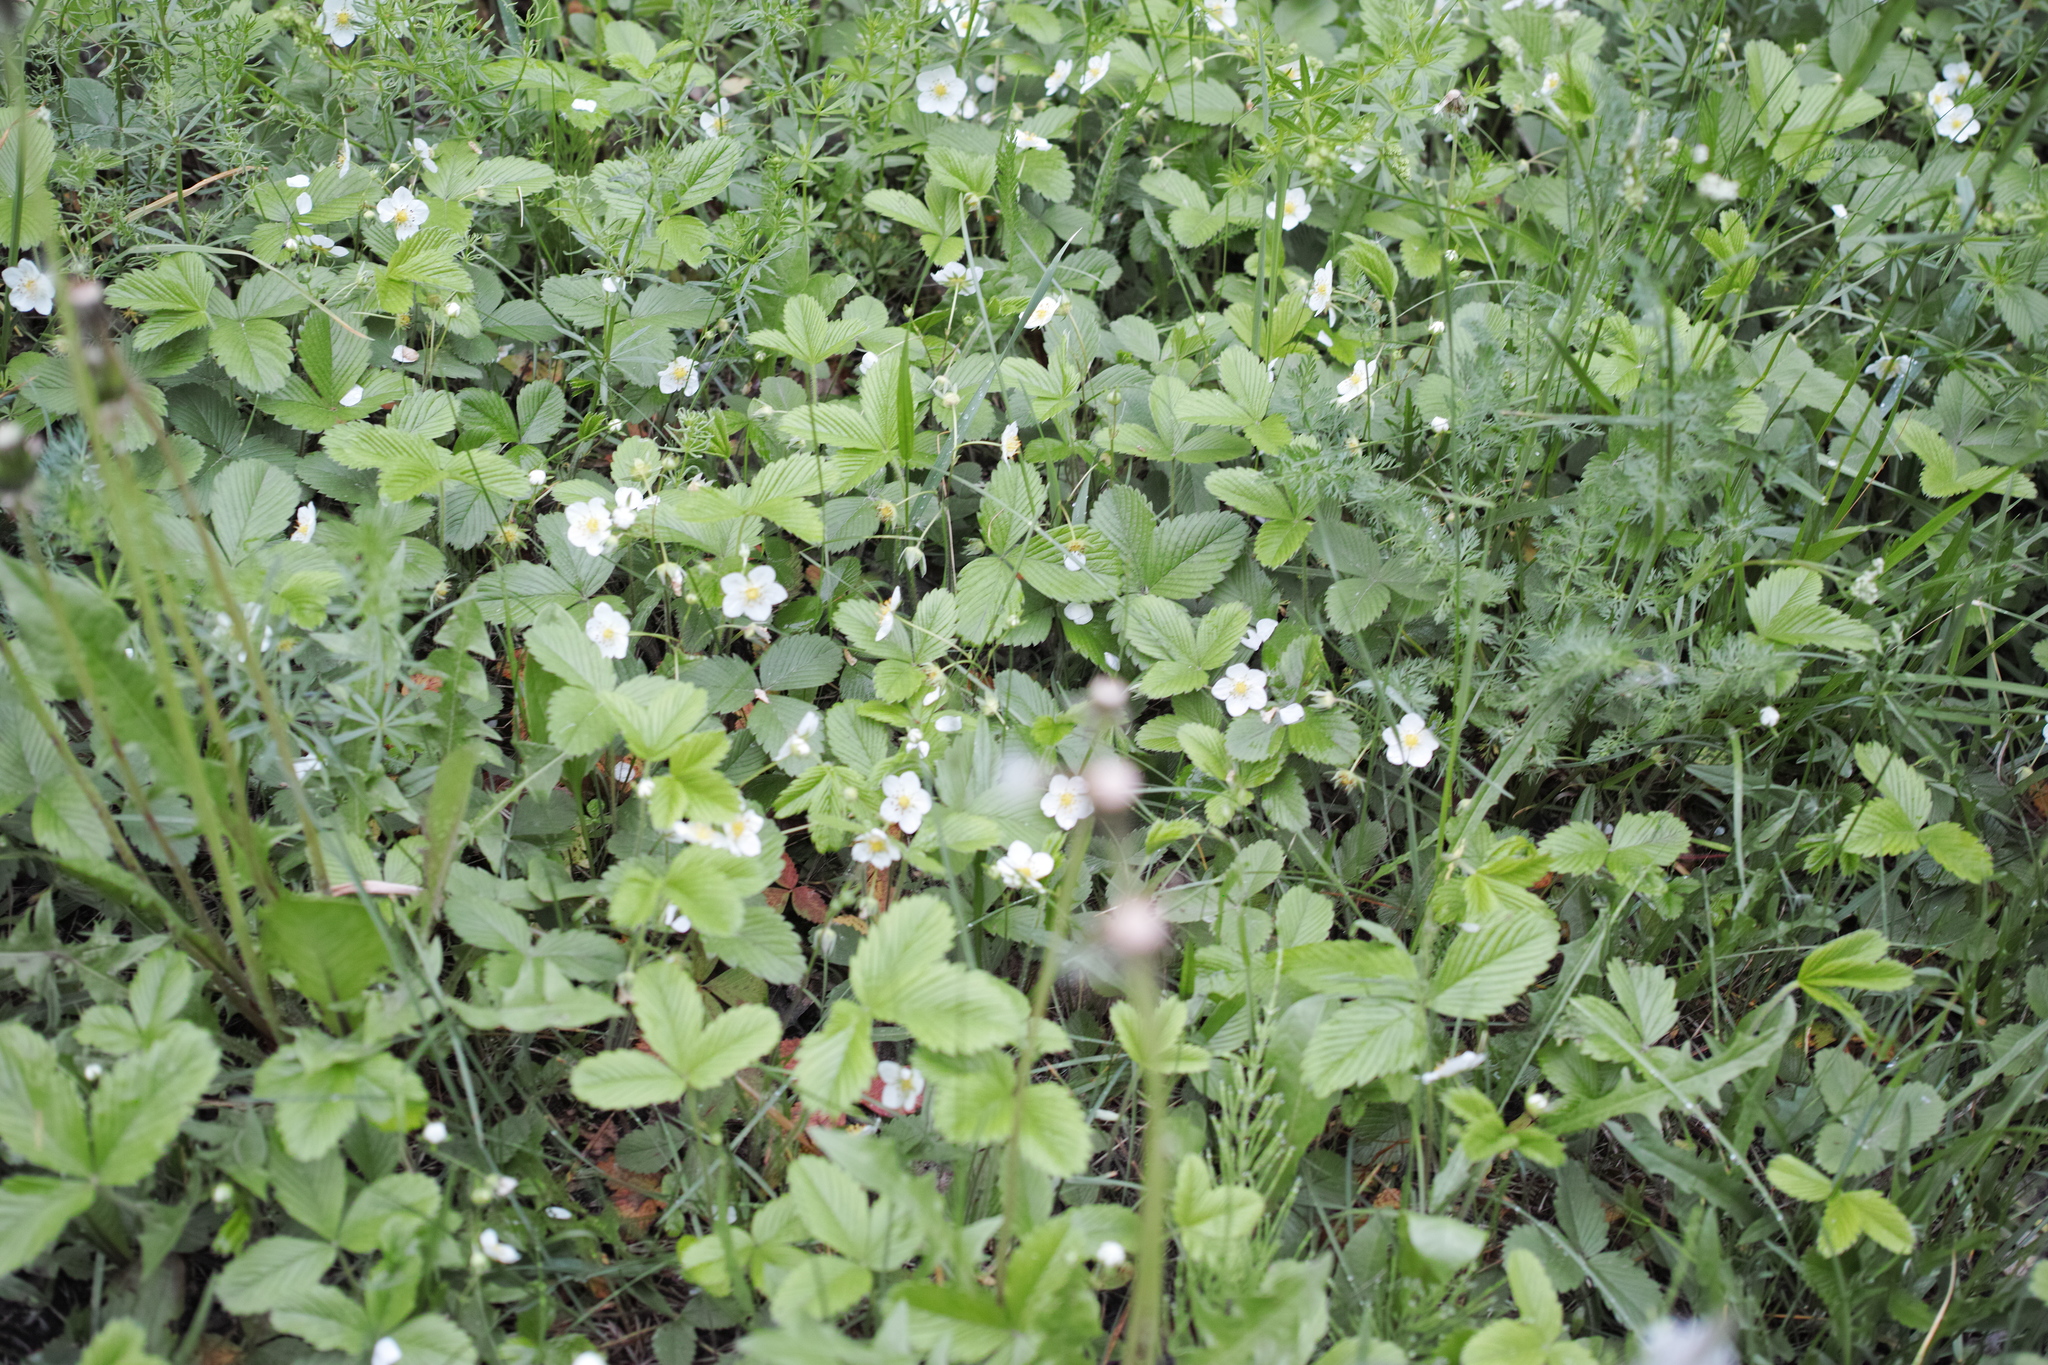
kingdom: Plantae
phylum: Tracheophyta
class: Magnoliopsida
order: Rosales
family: Rosaceae
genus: Fragaria
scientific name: Fragaria viridis
